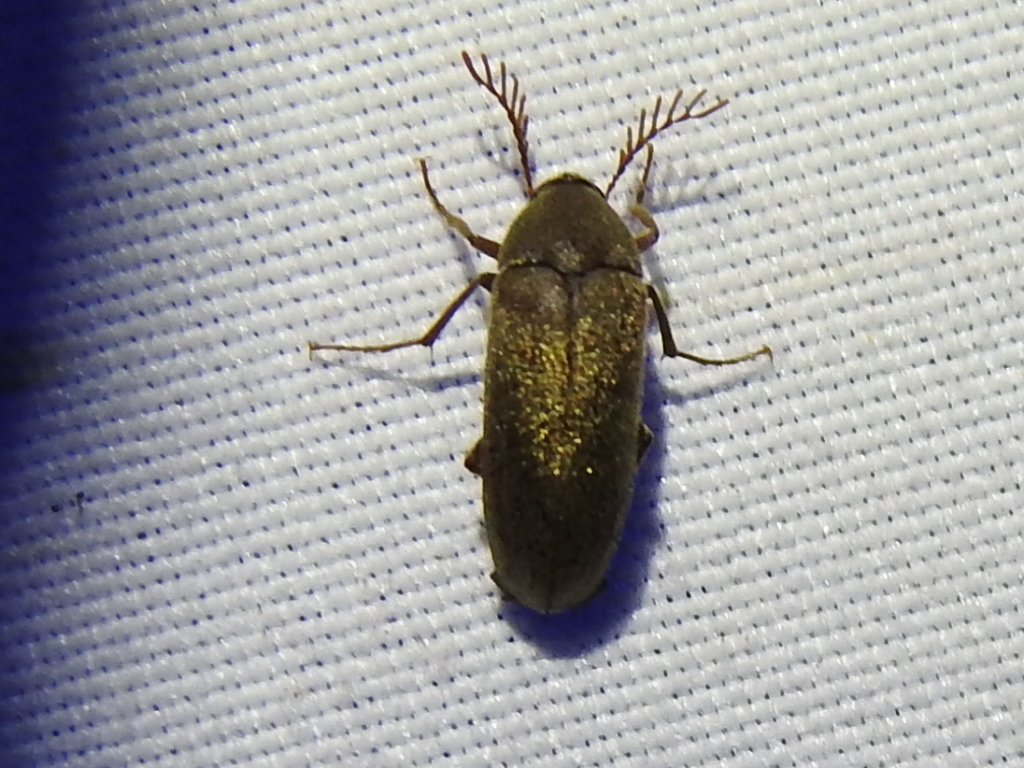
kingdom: Animalia
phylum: Arthropoda
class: Insecta
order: Coleoptera
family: Ripiphoridae
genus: Trigonodera
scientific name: Trigonodera schaefferi
